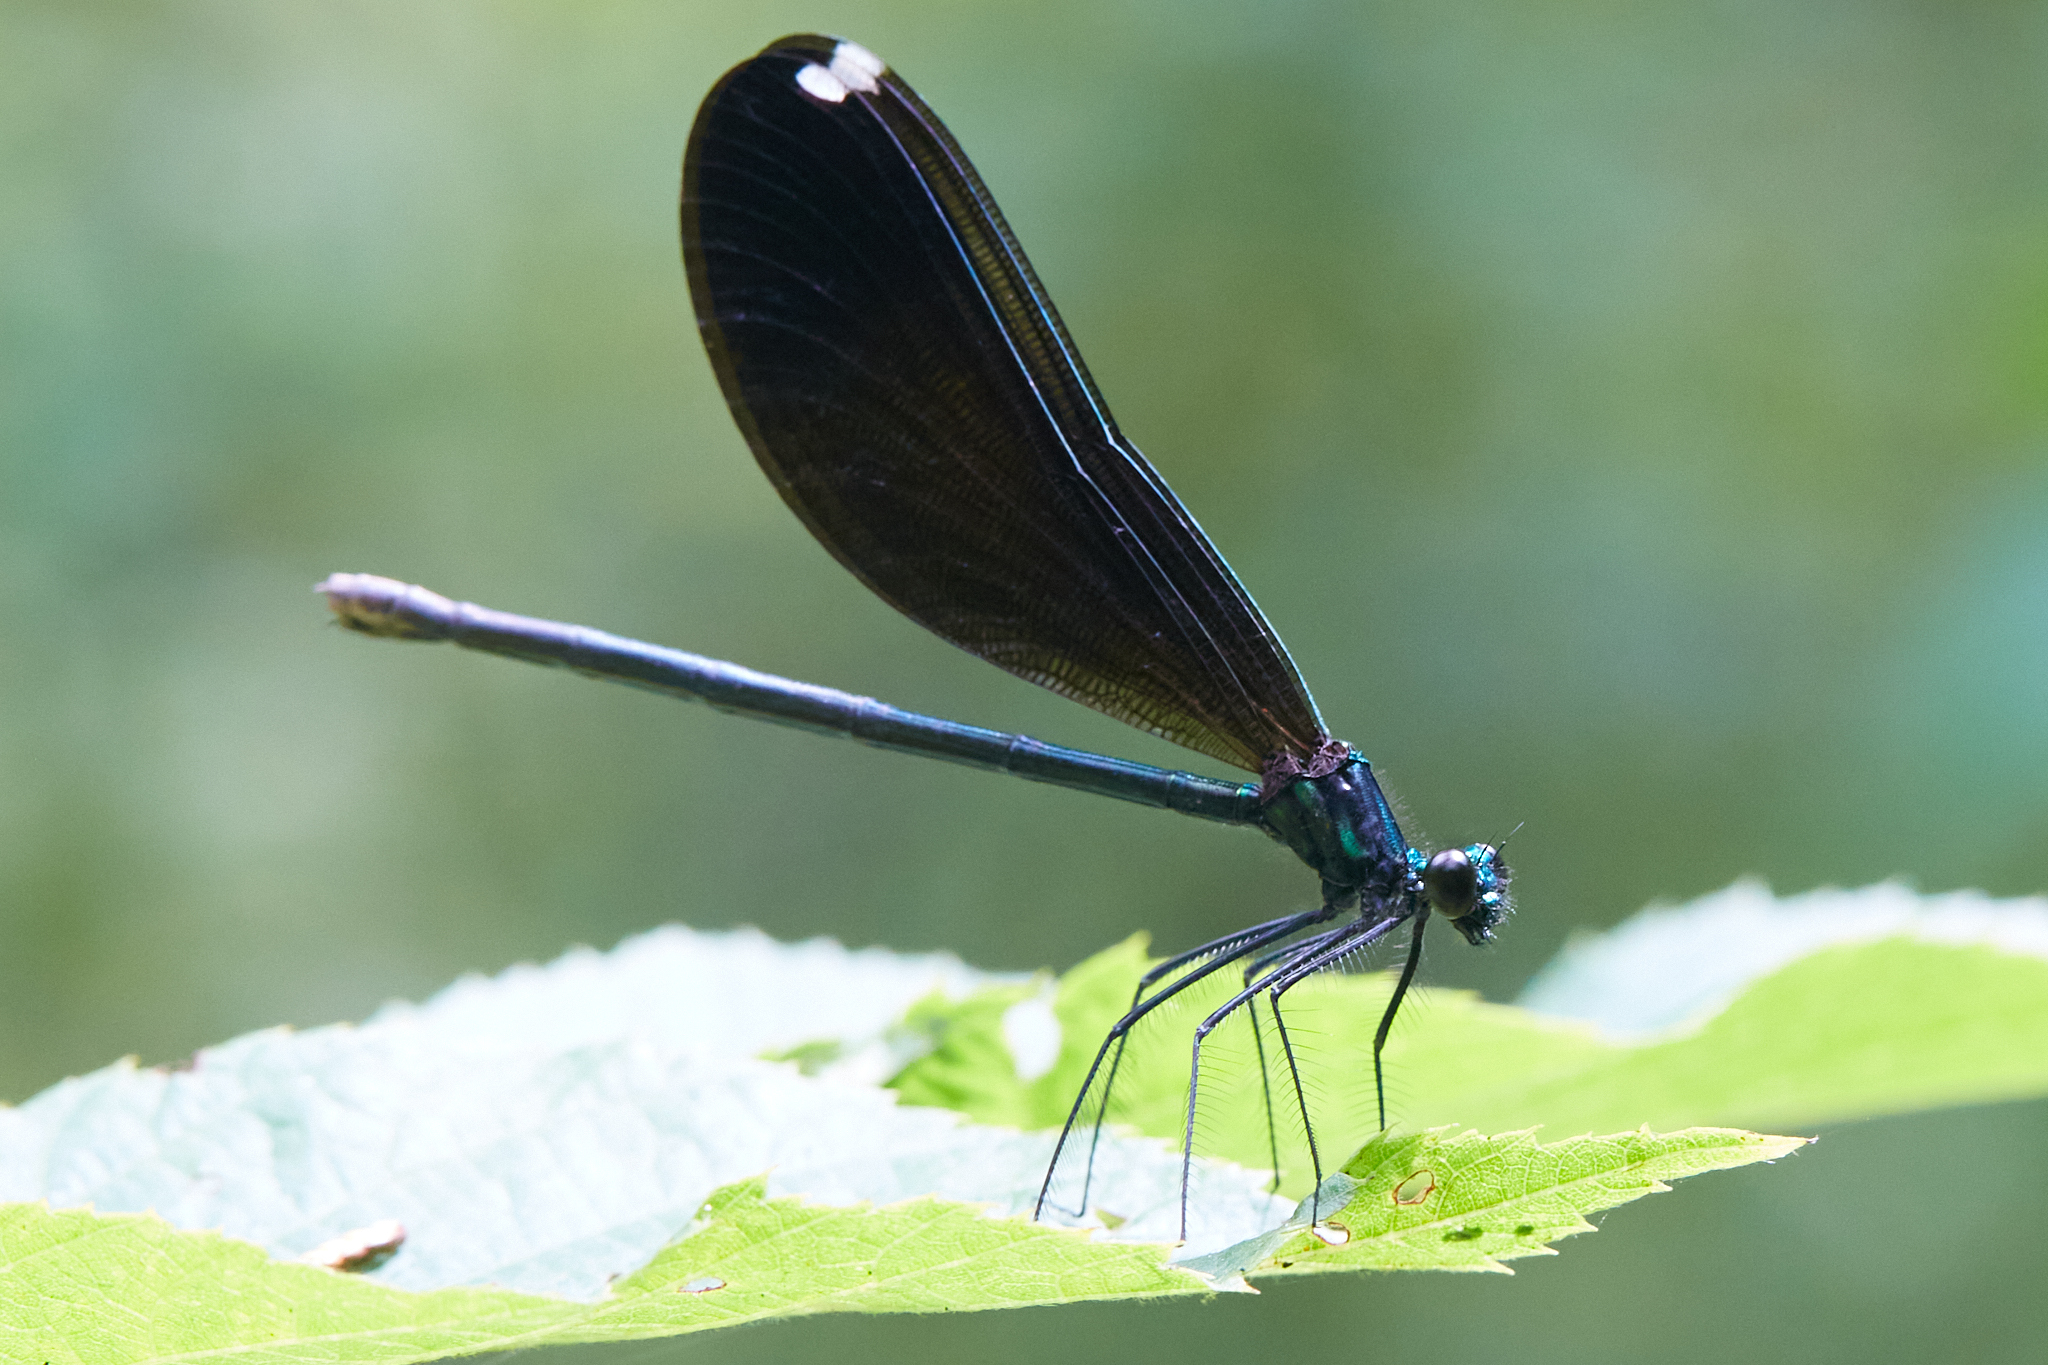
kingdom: Animalia
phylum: Arthropoda
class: Insecta
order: Odonata
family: Calopterygidae
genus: Calopteryx
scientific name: Calopteryx maculata
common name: Ebony jewelwing
